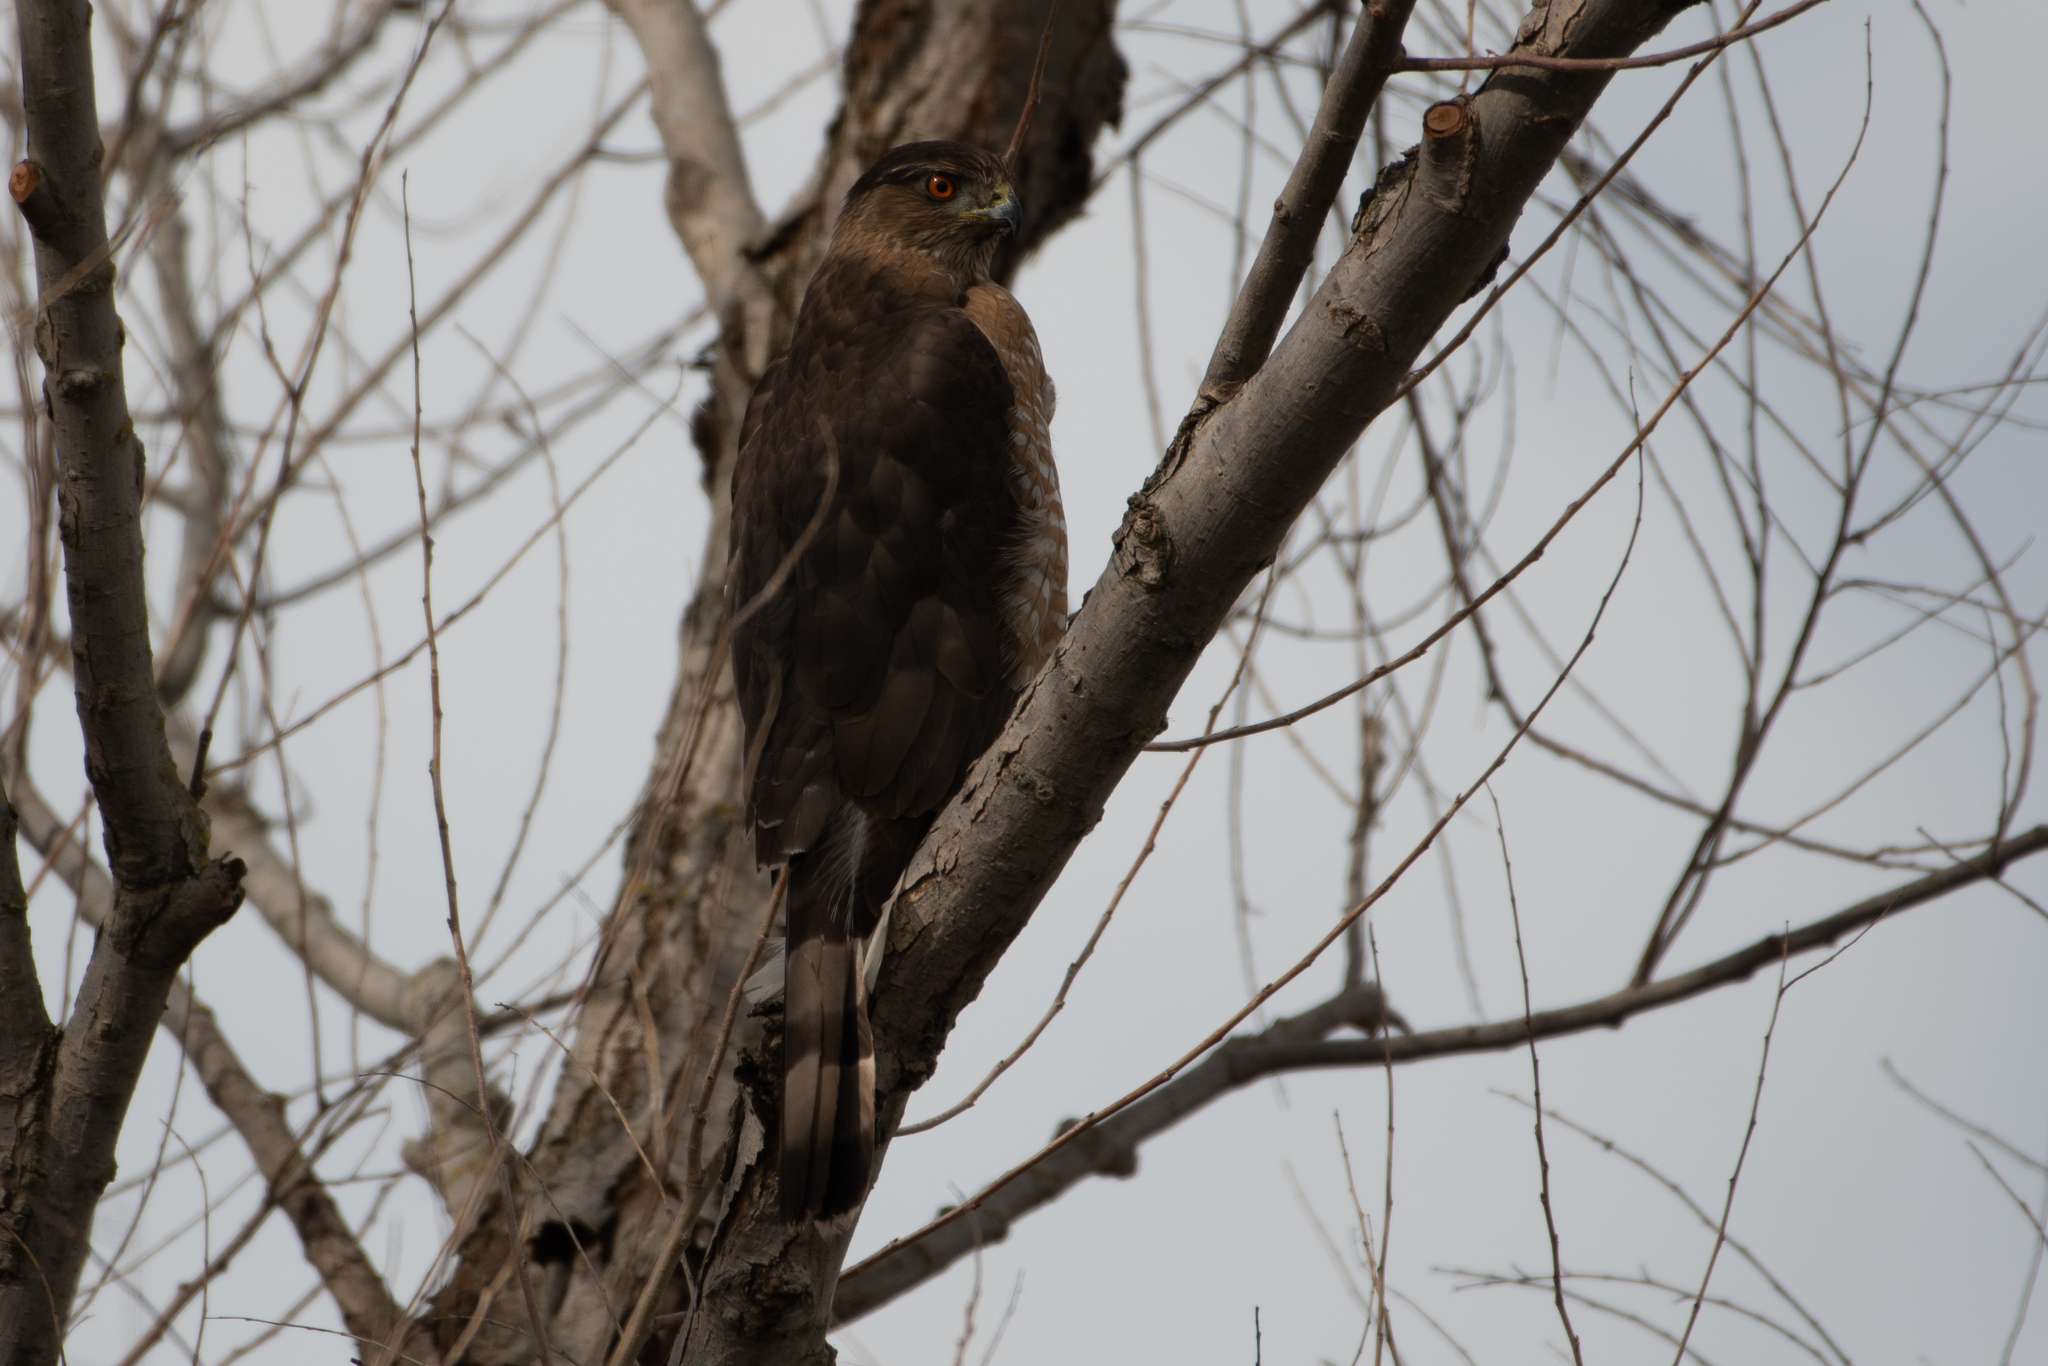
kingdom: Animalia
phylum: Chordata
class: Aves
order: Accipitriformes
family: Accipitridae
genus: Accipiter
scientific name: Accipiter cooperii
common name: Cooper's hawk
